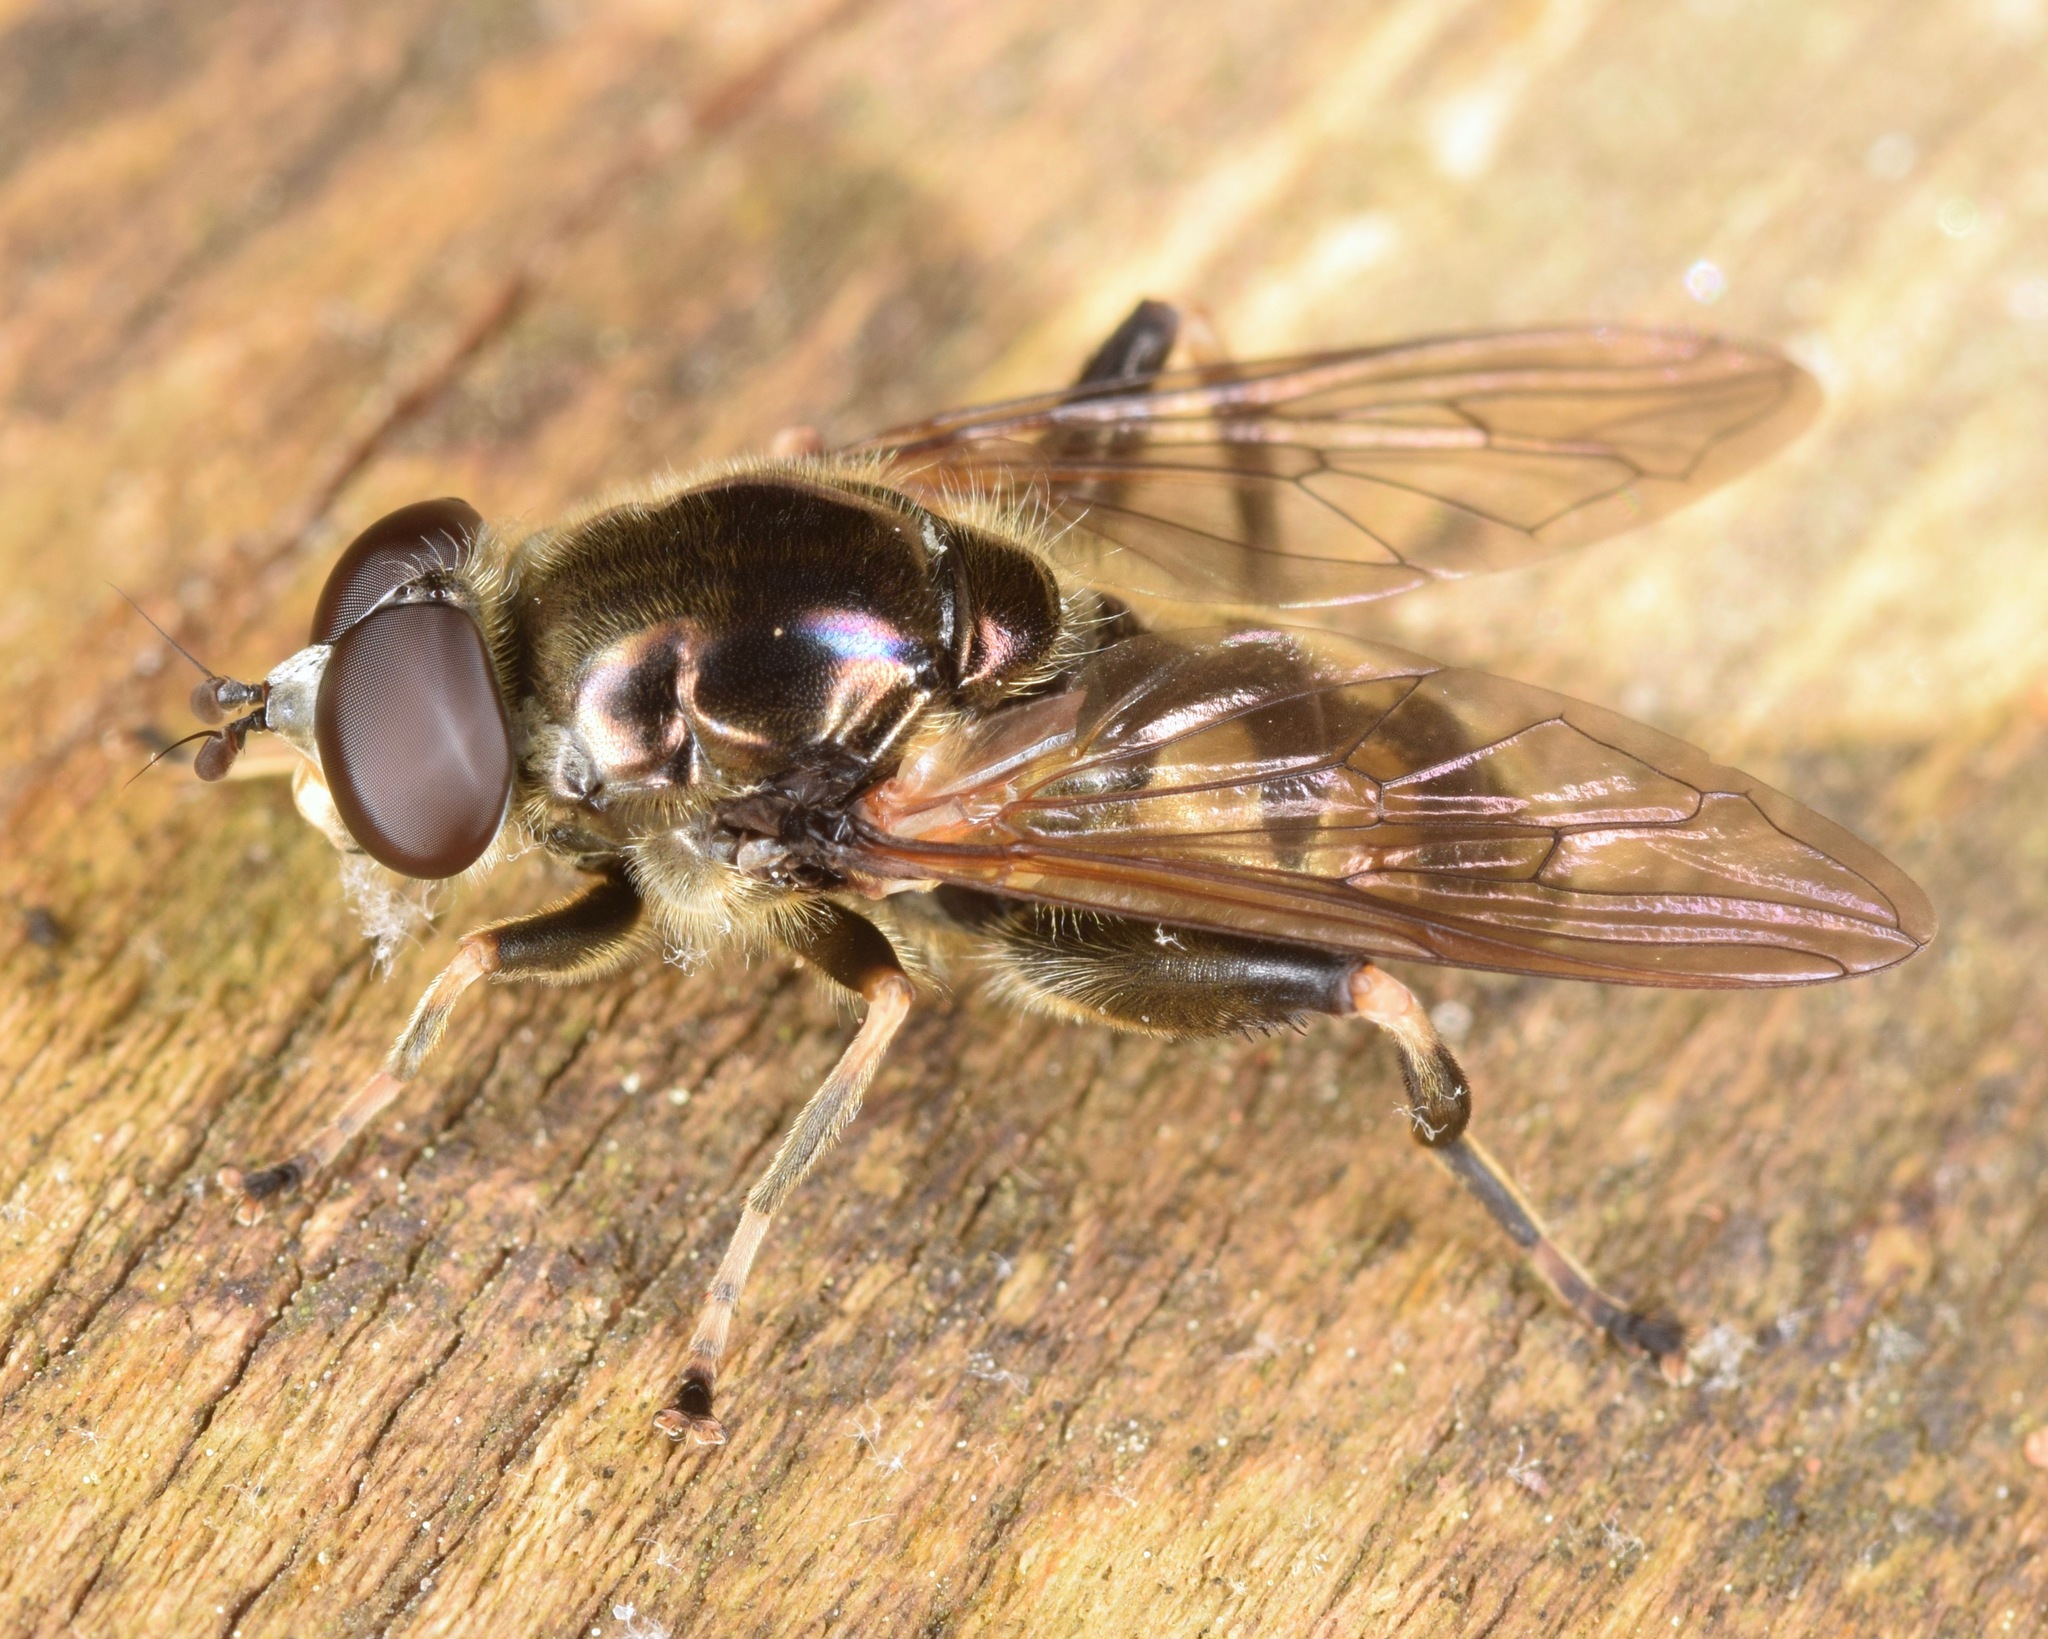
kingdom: Animalia
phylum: Arthropoda
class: Insecta
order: Diptera
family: Syrphidae
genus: Chalcosyrphus
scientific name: Chalcosyrphus anthreas
